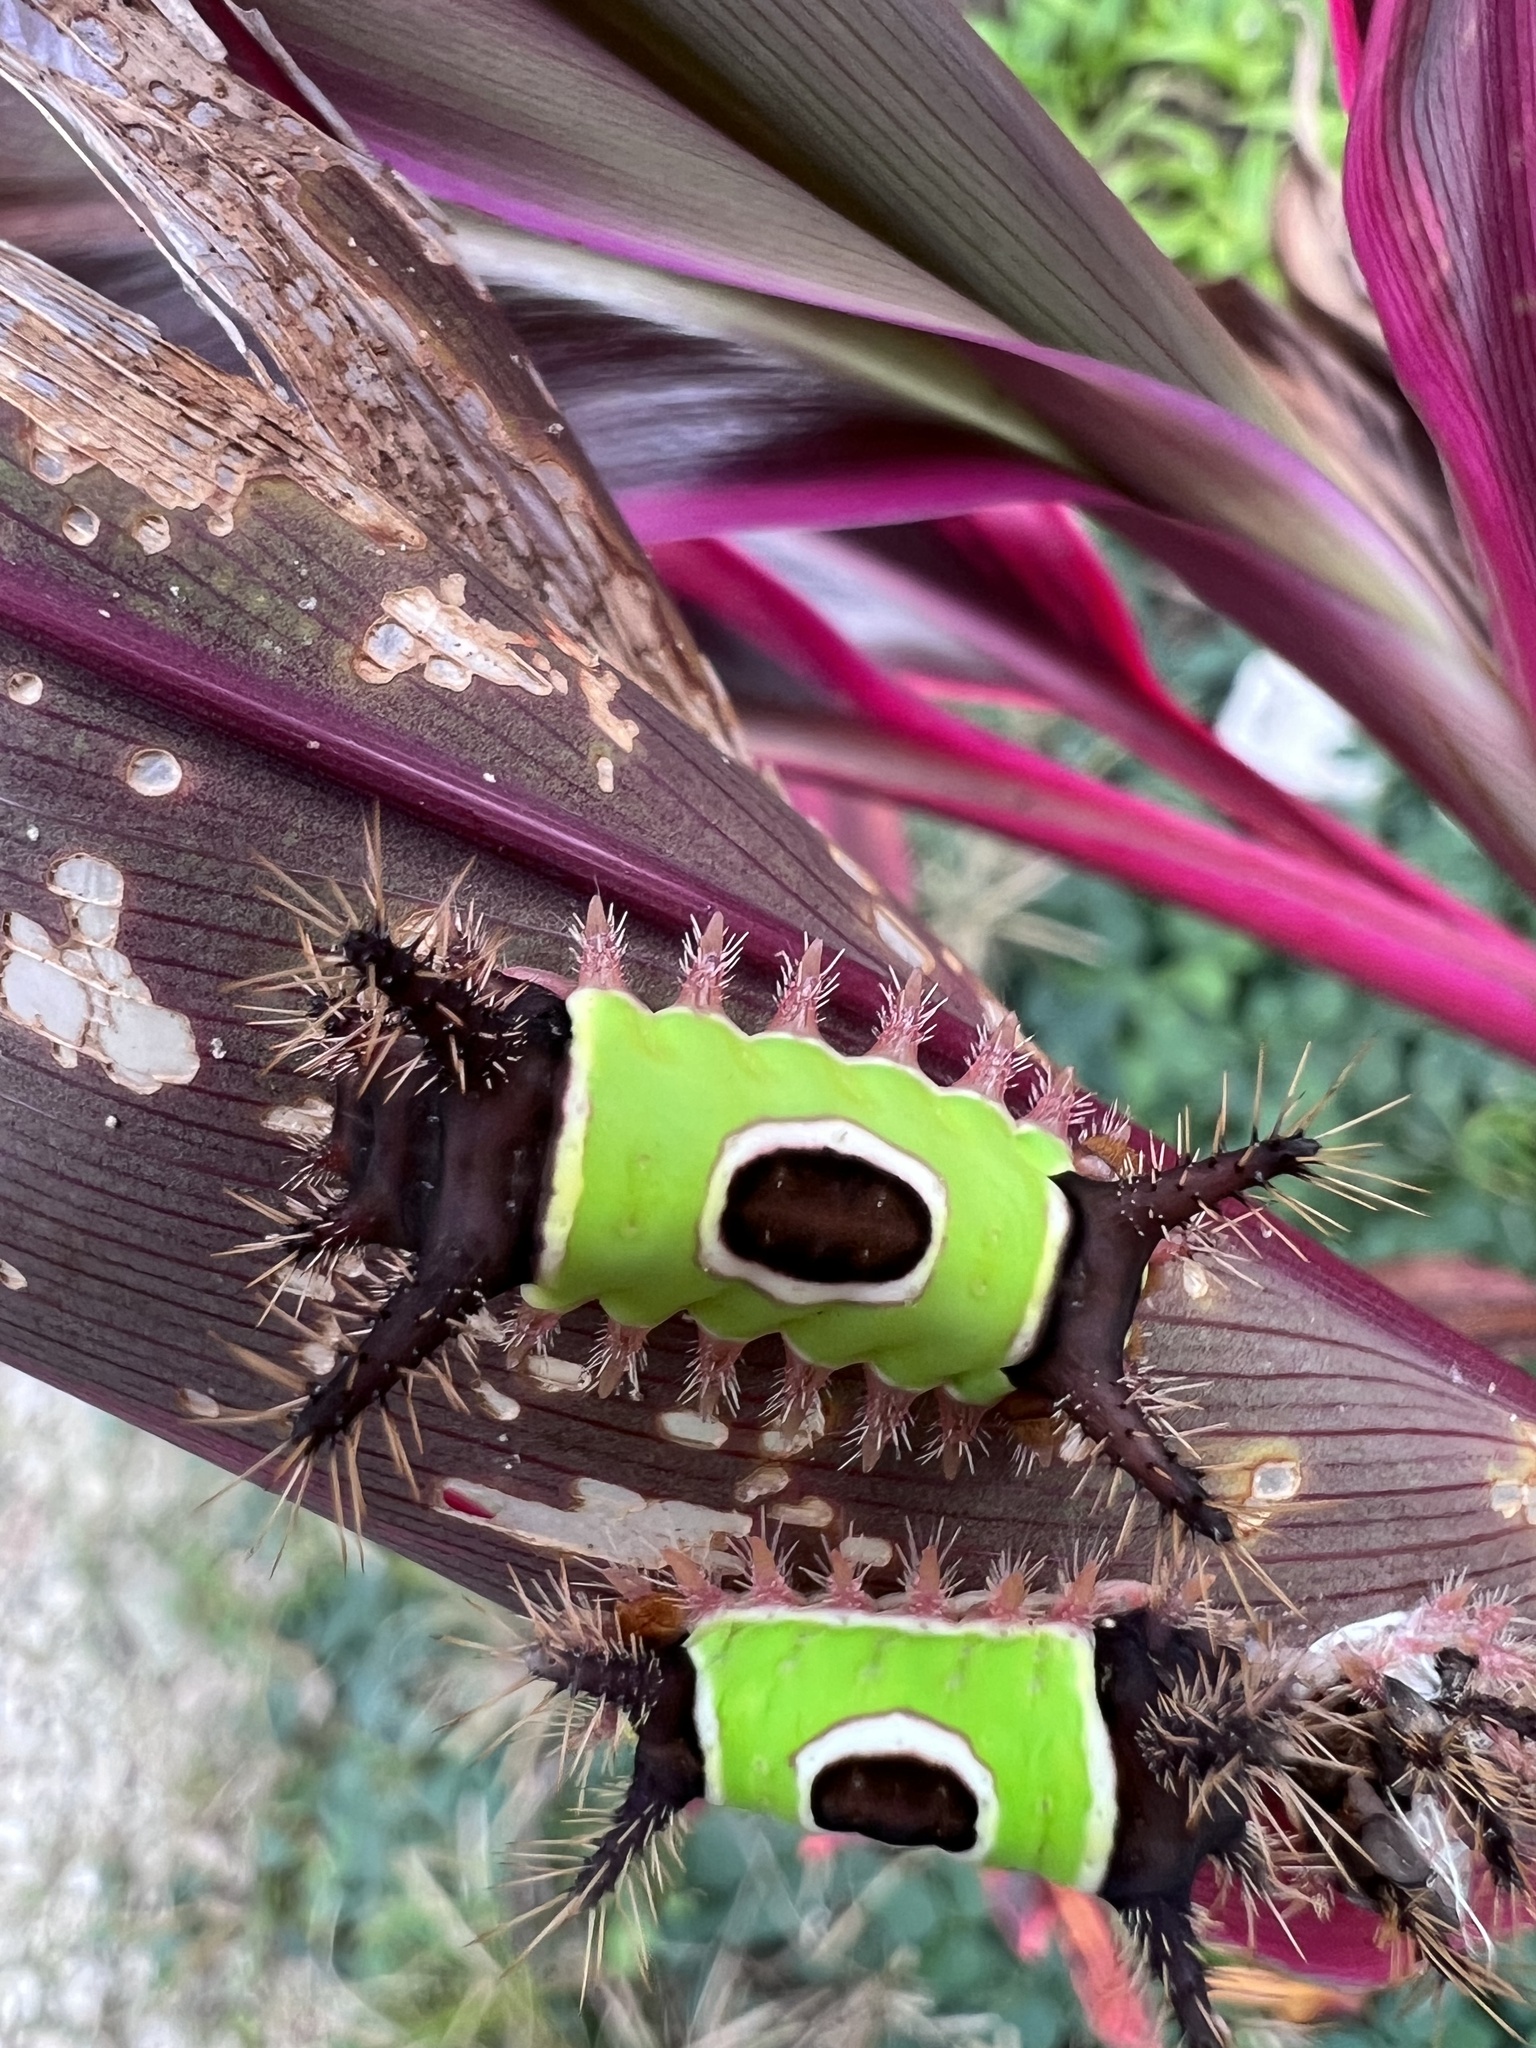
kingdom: Animalia
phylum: Arthropoda
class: Insecta
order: Lepidoptera
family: Limacodidae
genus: Acharia
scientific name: Acharia hyperoche
